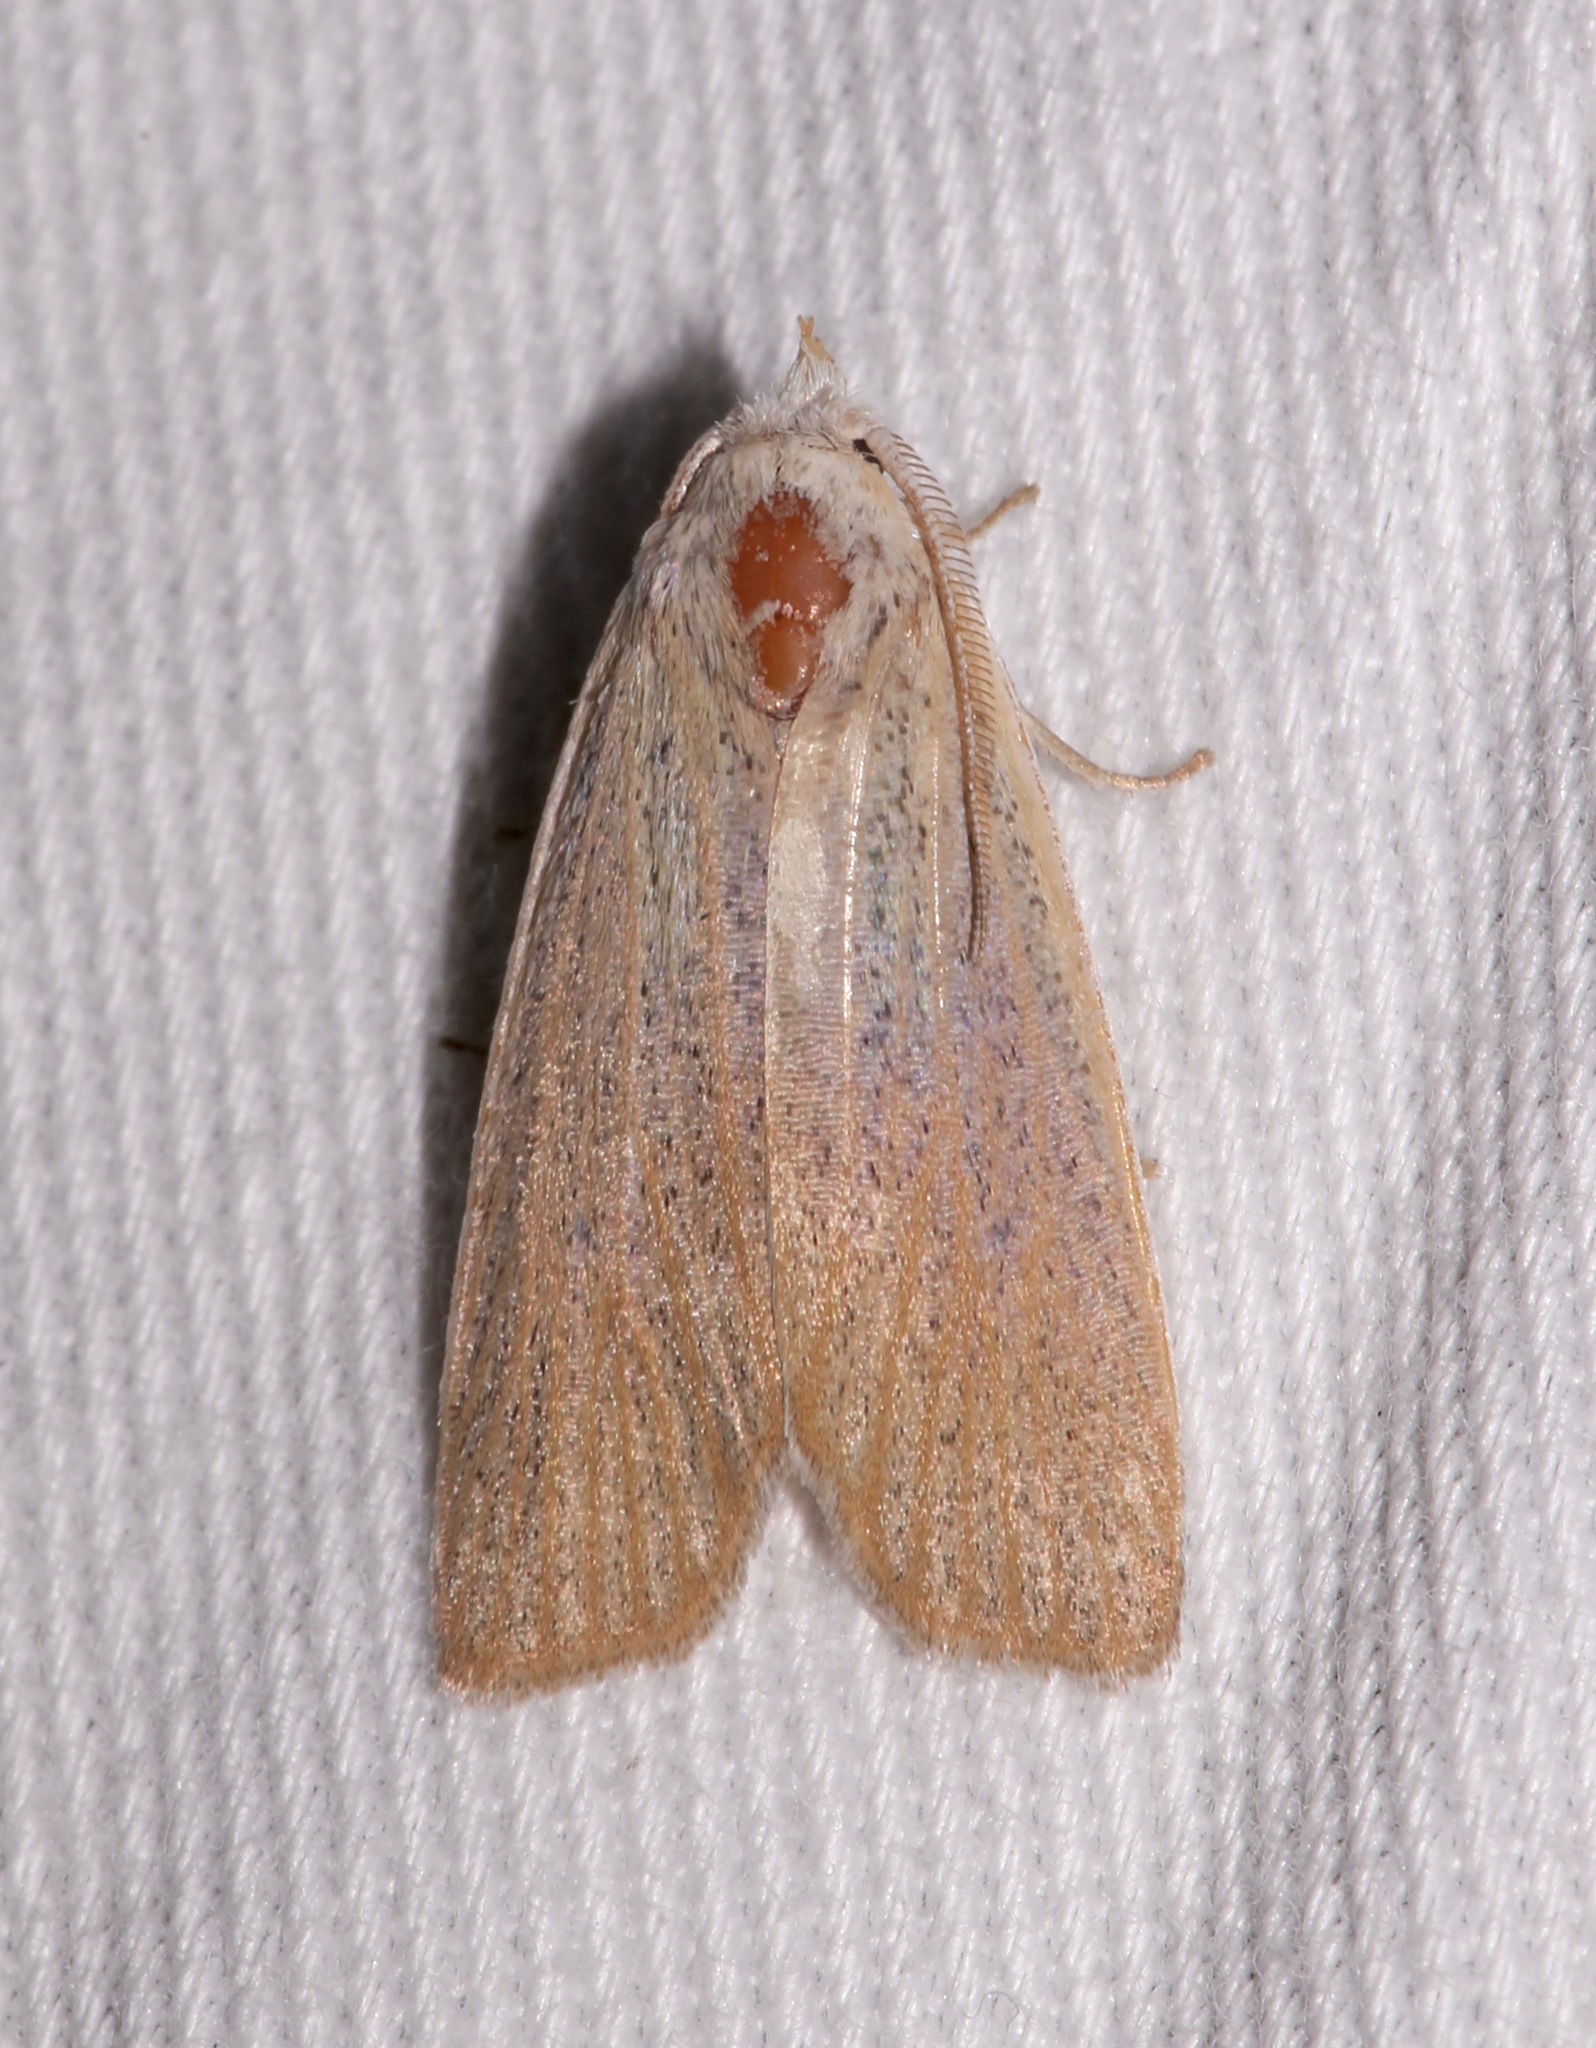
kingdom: Animalia
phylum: Arthropoda
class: Insecta
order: Lepidoptera
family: Erebidae
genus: Palpidia
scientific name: Palpidia pallidior
